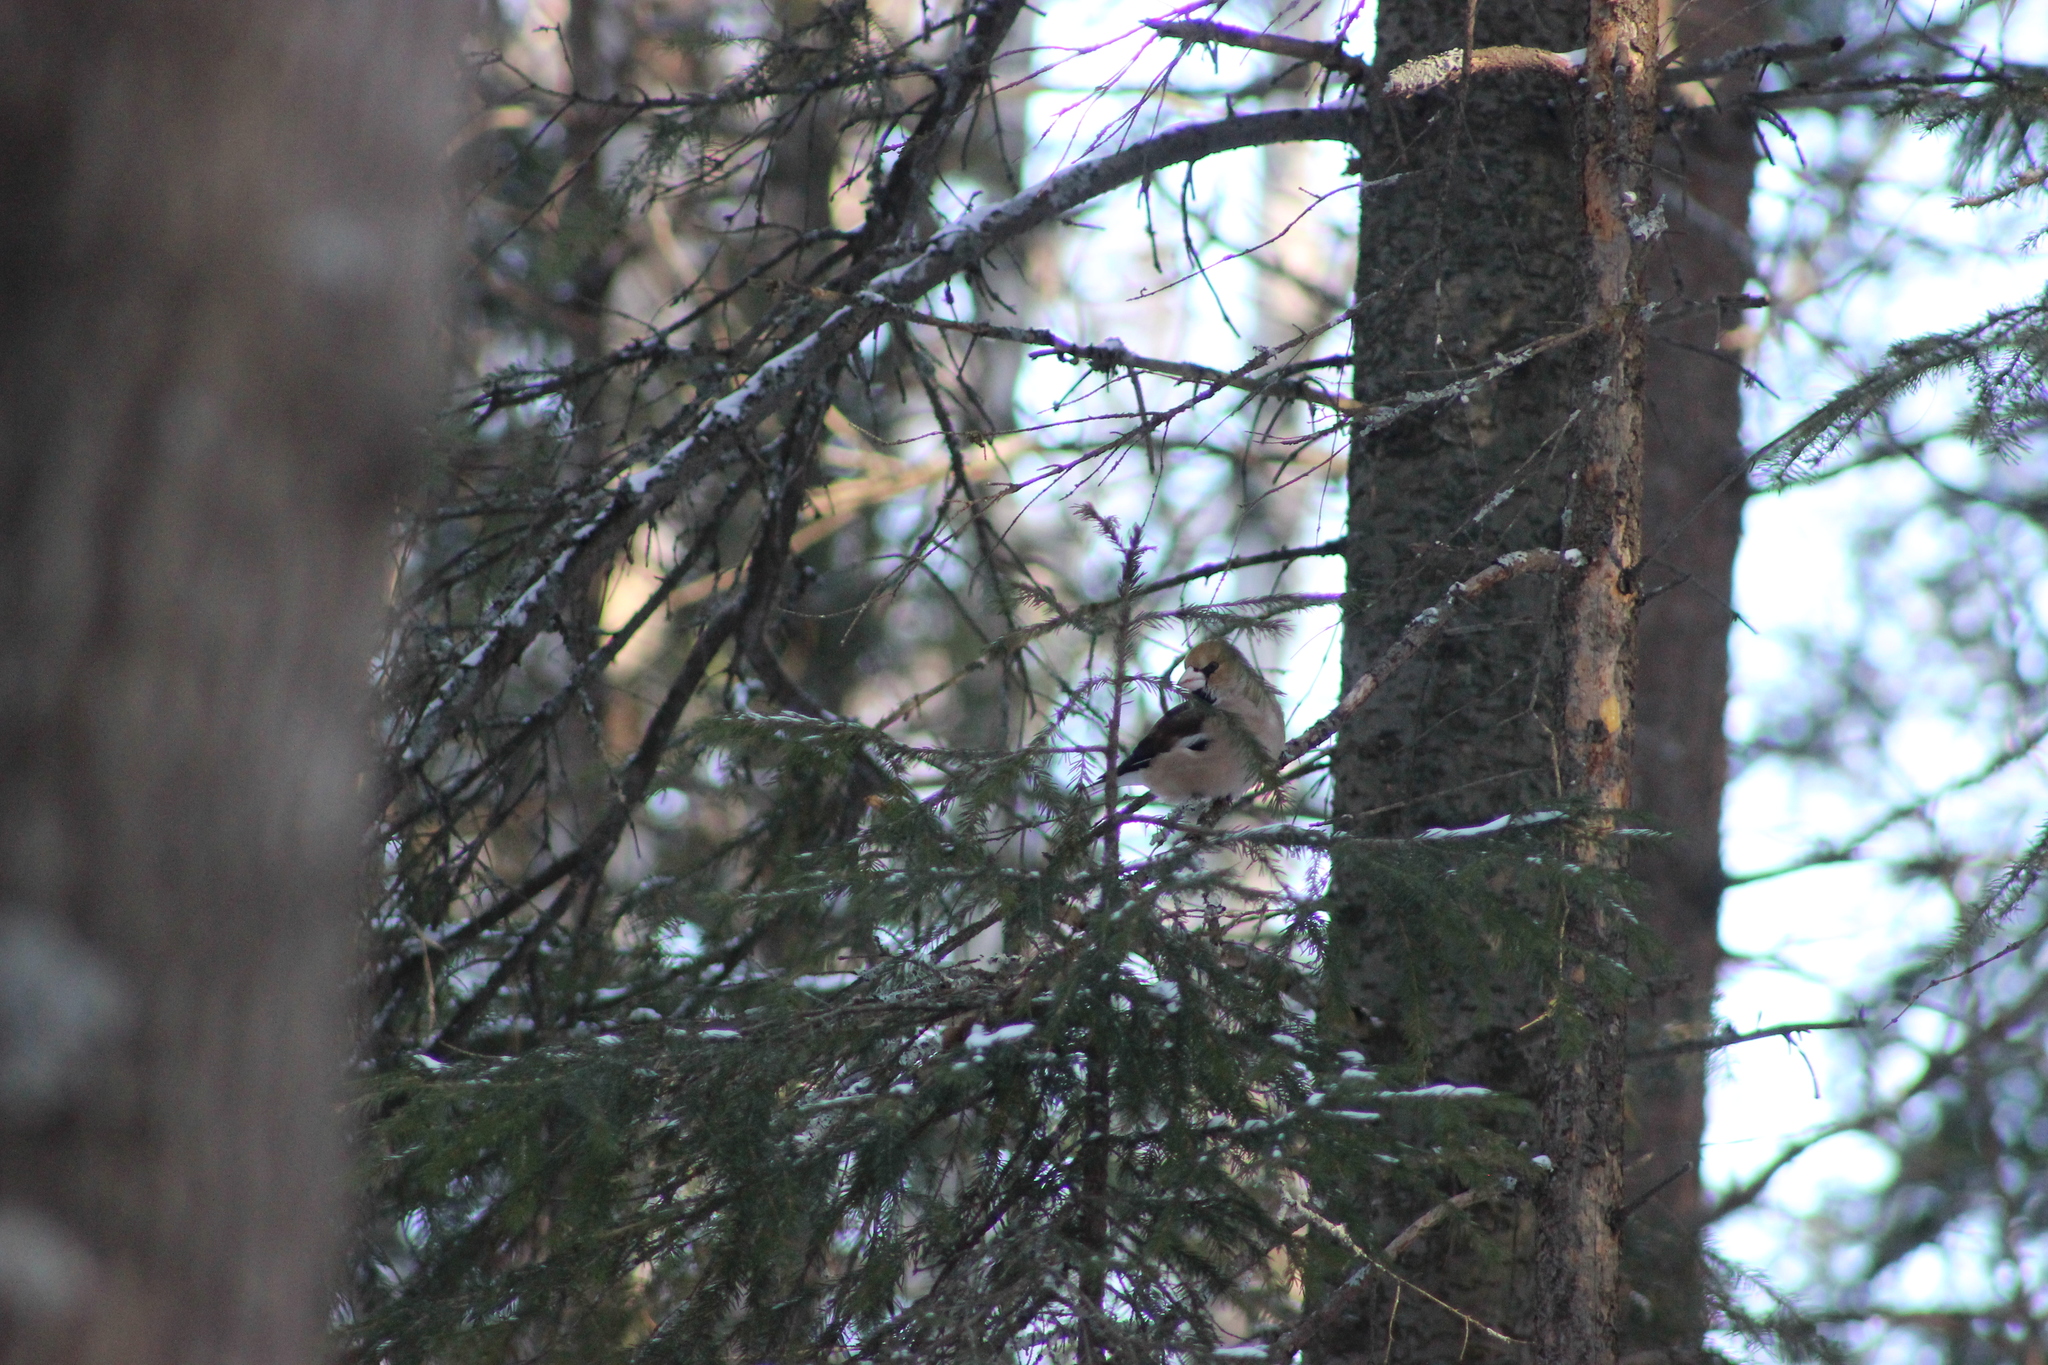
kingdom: Animalia
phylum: Chordata
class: Aves
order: Passeriformes
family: Fringillidae
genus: Coccothraustes
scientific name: Coccothraustes coccothraustes
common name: Hawfinch
